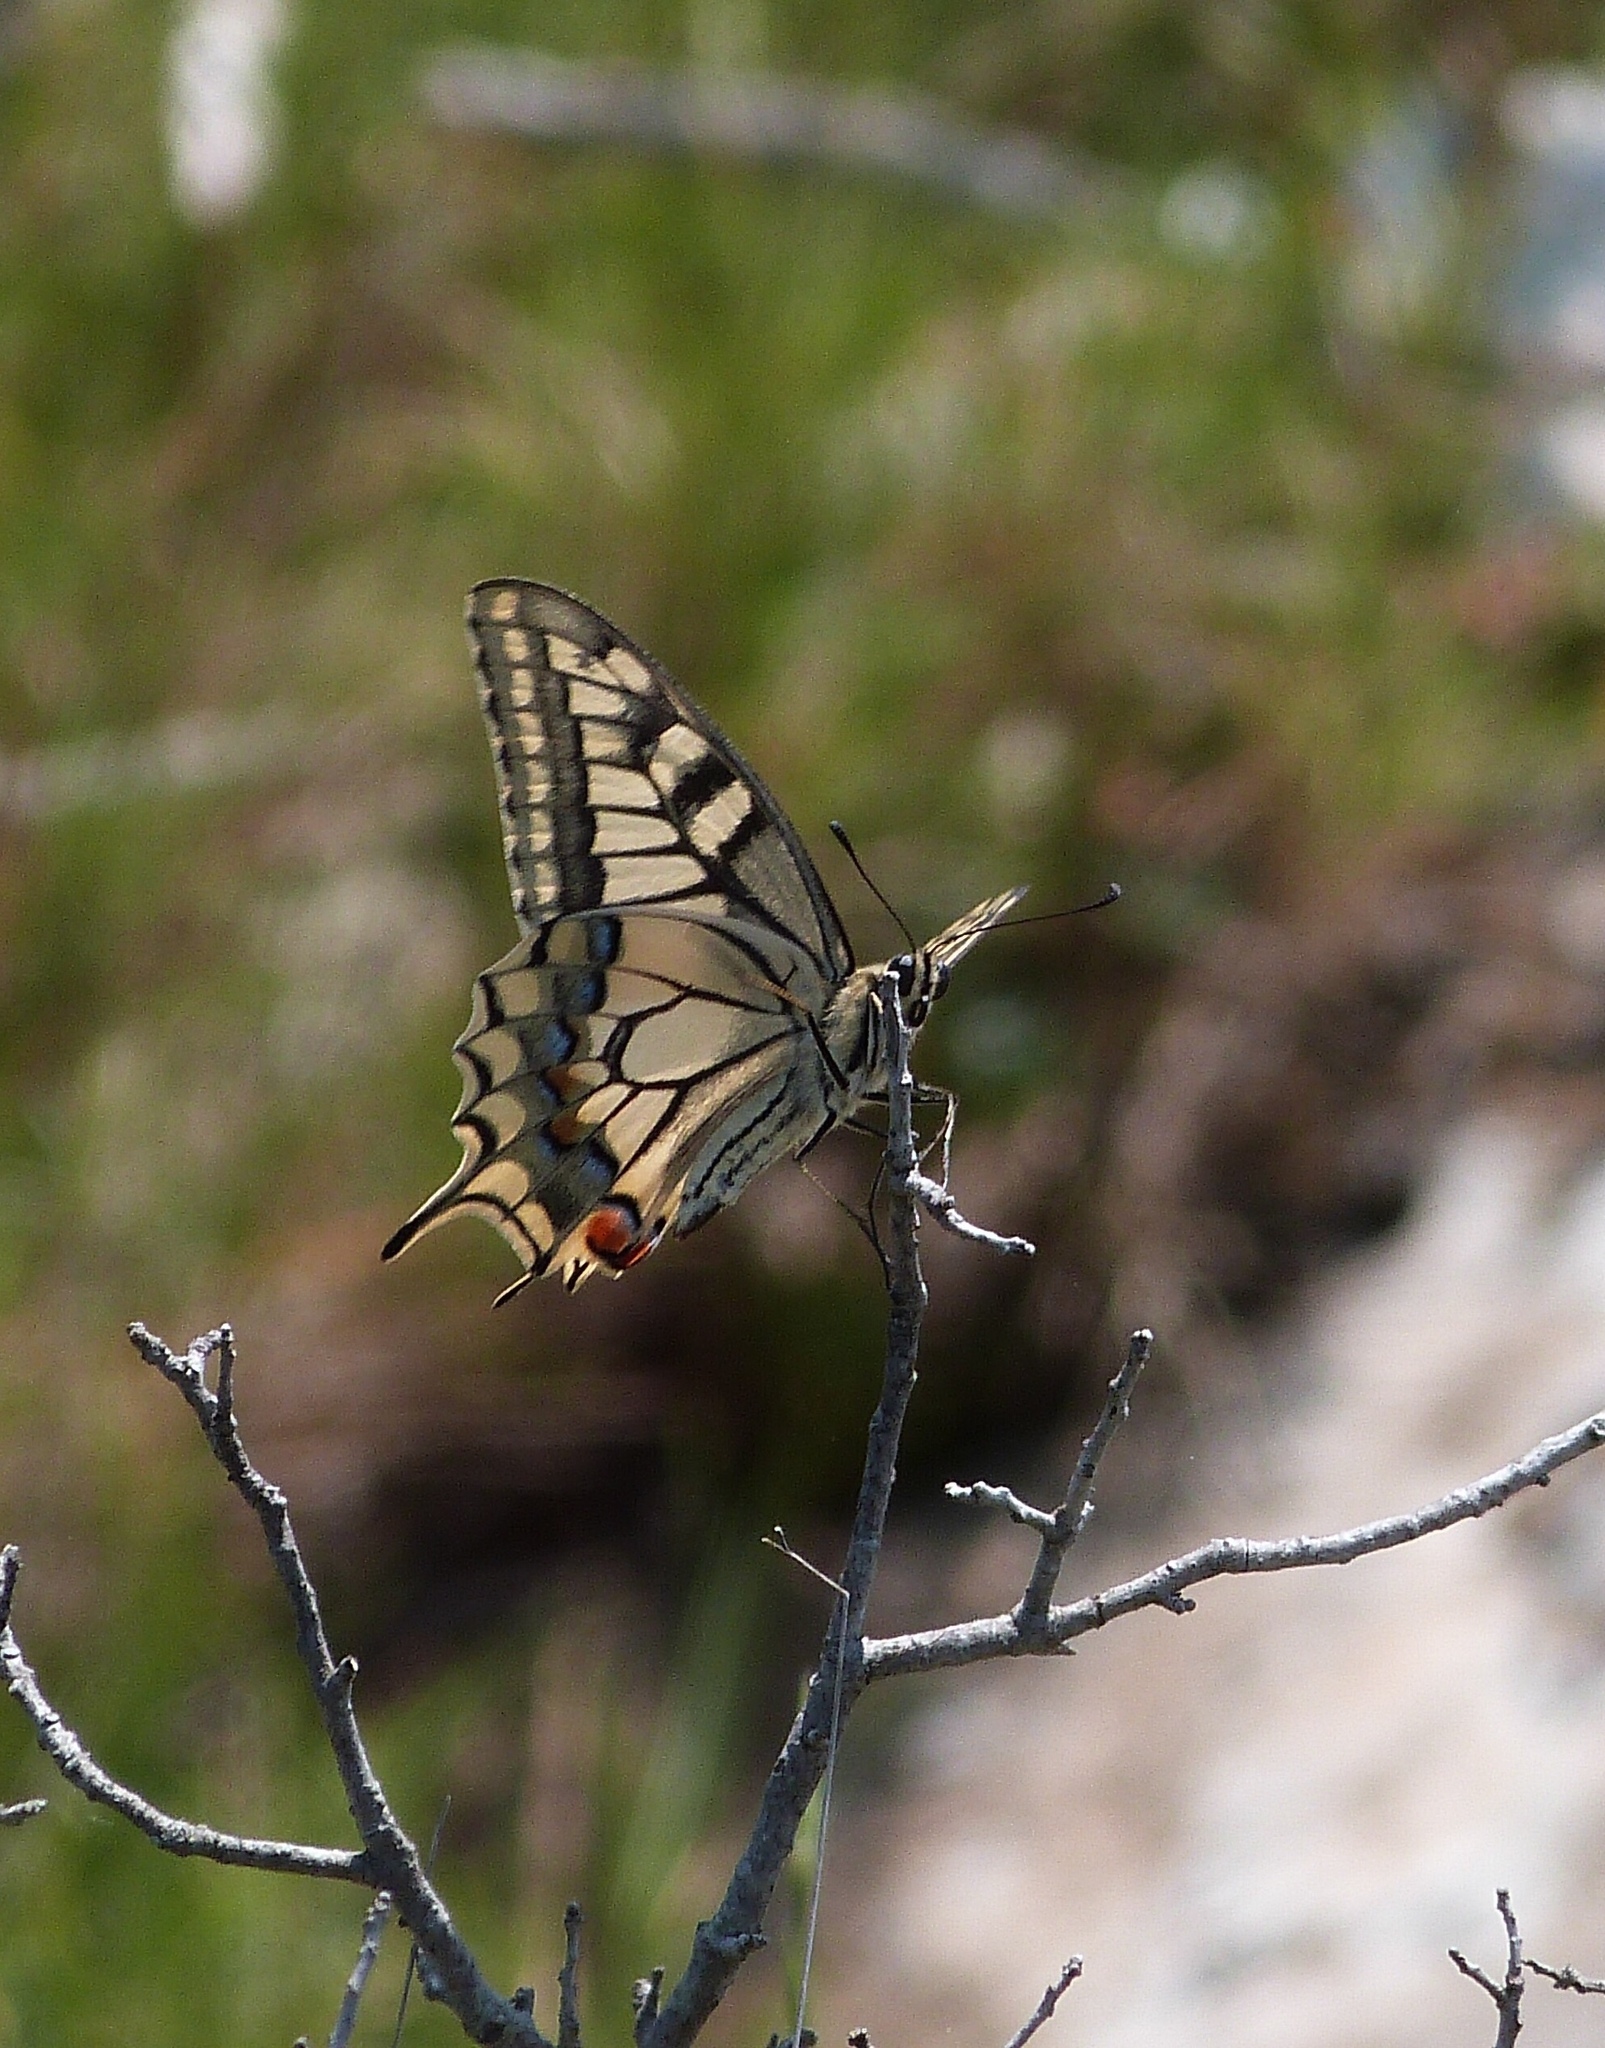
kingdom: Animalia
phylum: Arthropoda
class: Insecta
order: Lepidoptera
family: Papilionidae
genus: Papilio
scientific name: Papilio machaon
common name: Swallowtail
